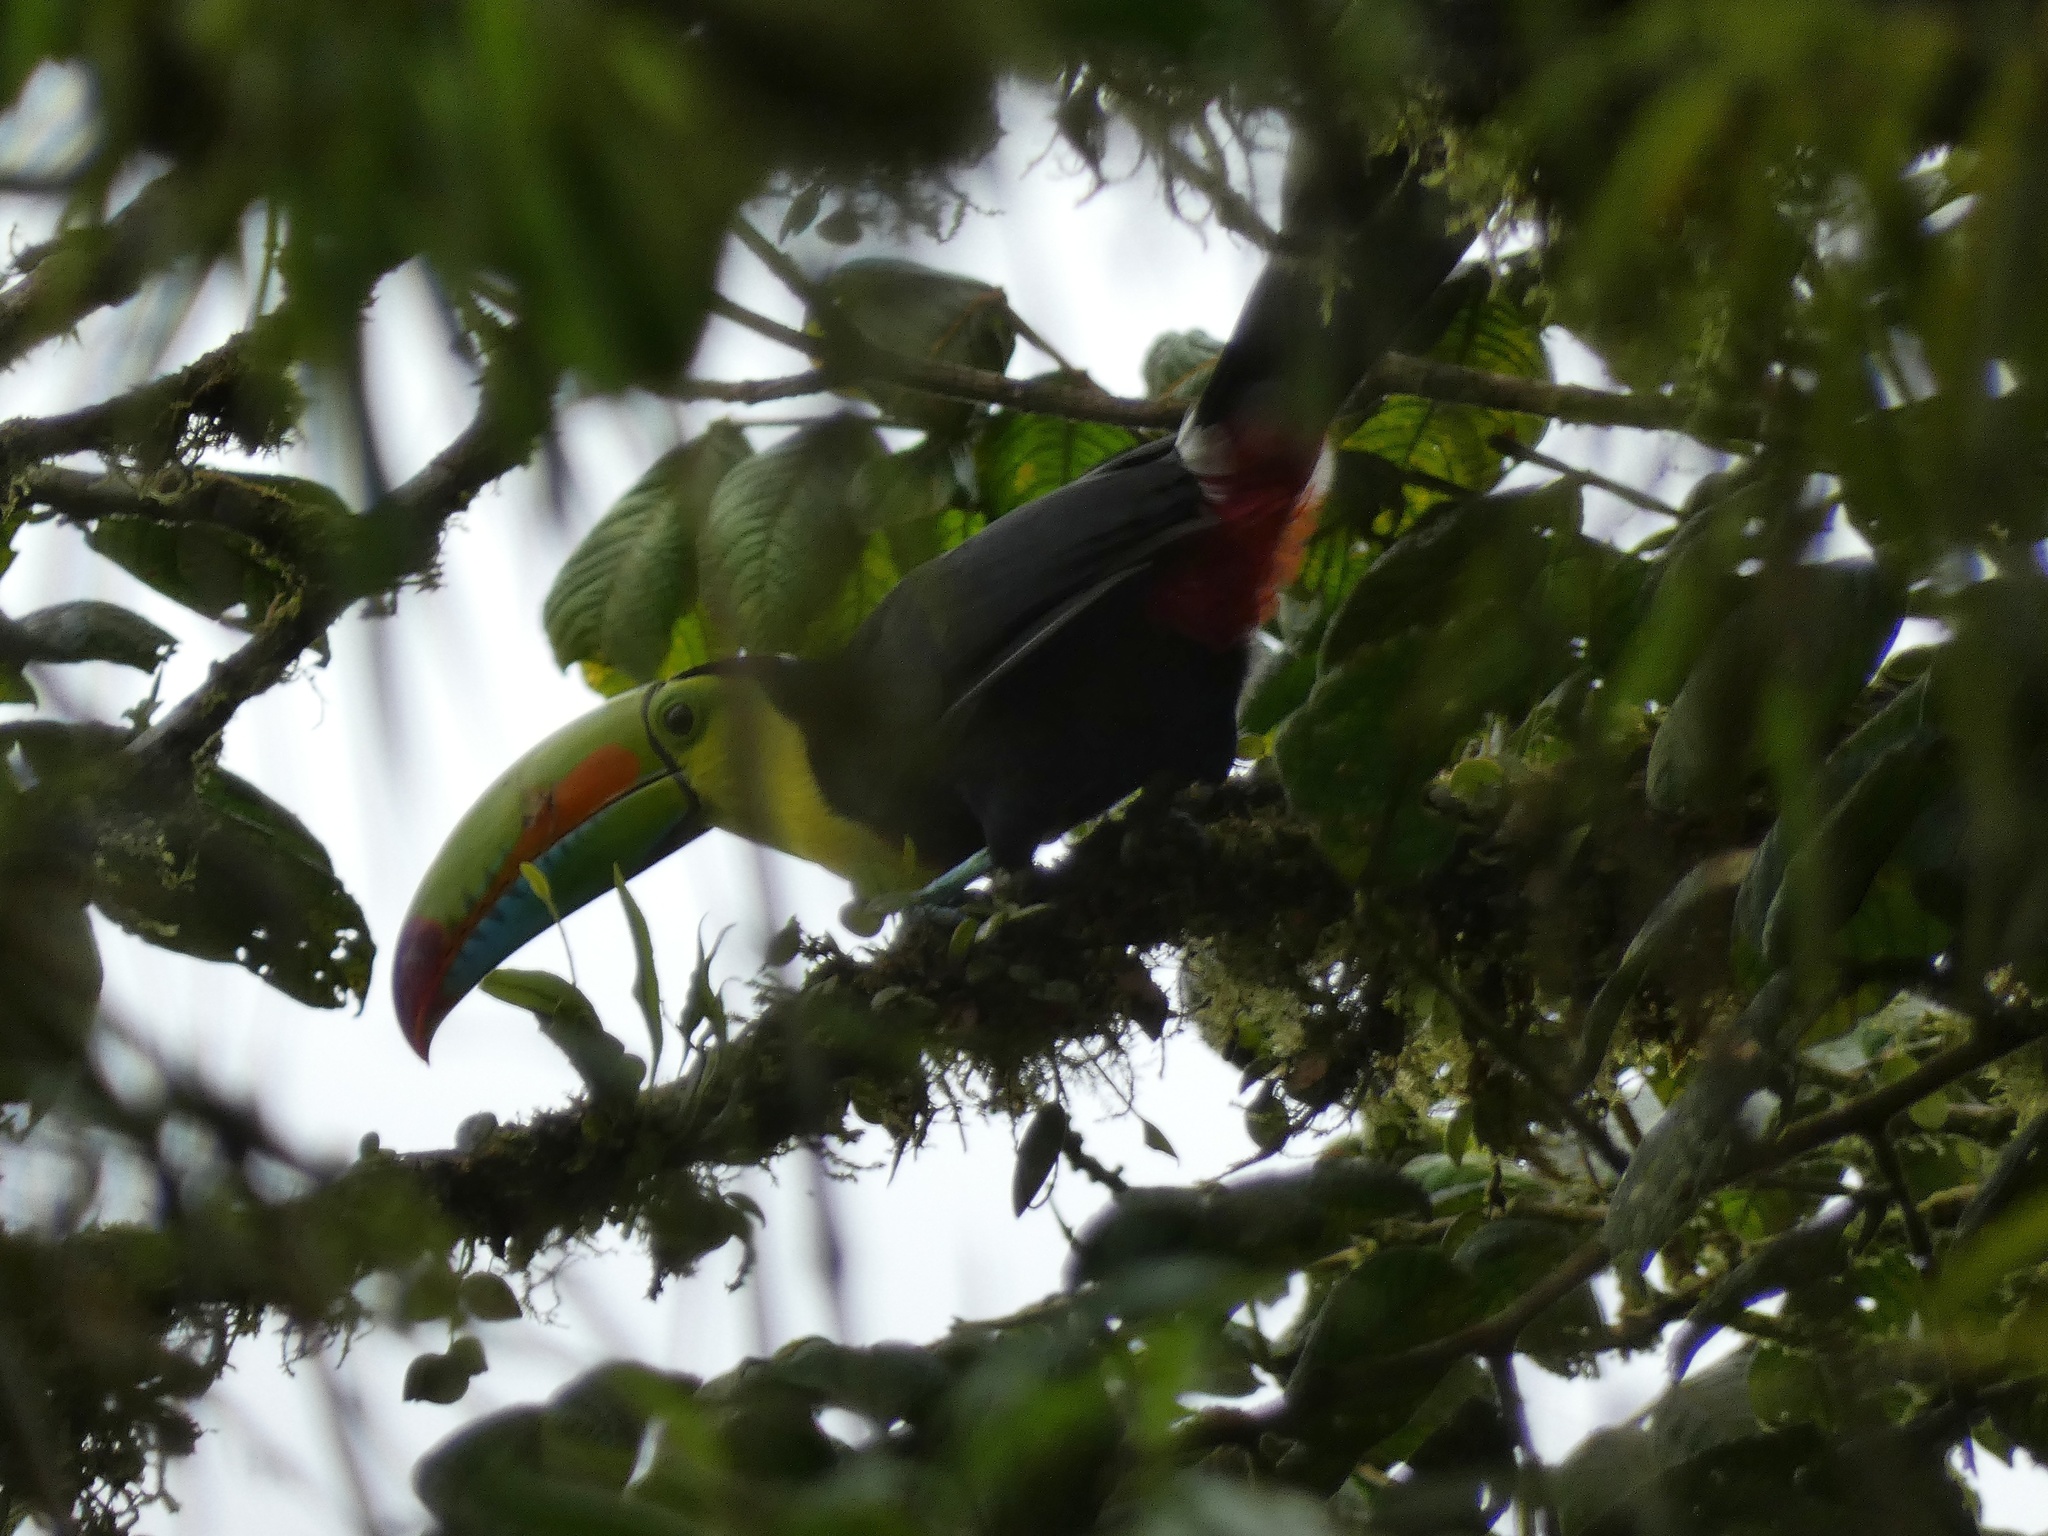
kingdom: Animalia
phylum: Chordata
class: Aves
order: Piciformes
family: Ramphastidae
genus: Ramphastos
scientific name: Ramphastos sulfuratus
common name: Keel-billed toucan
